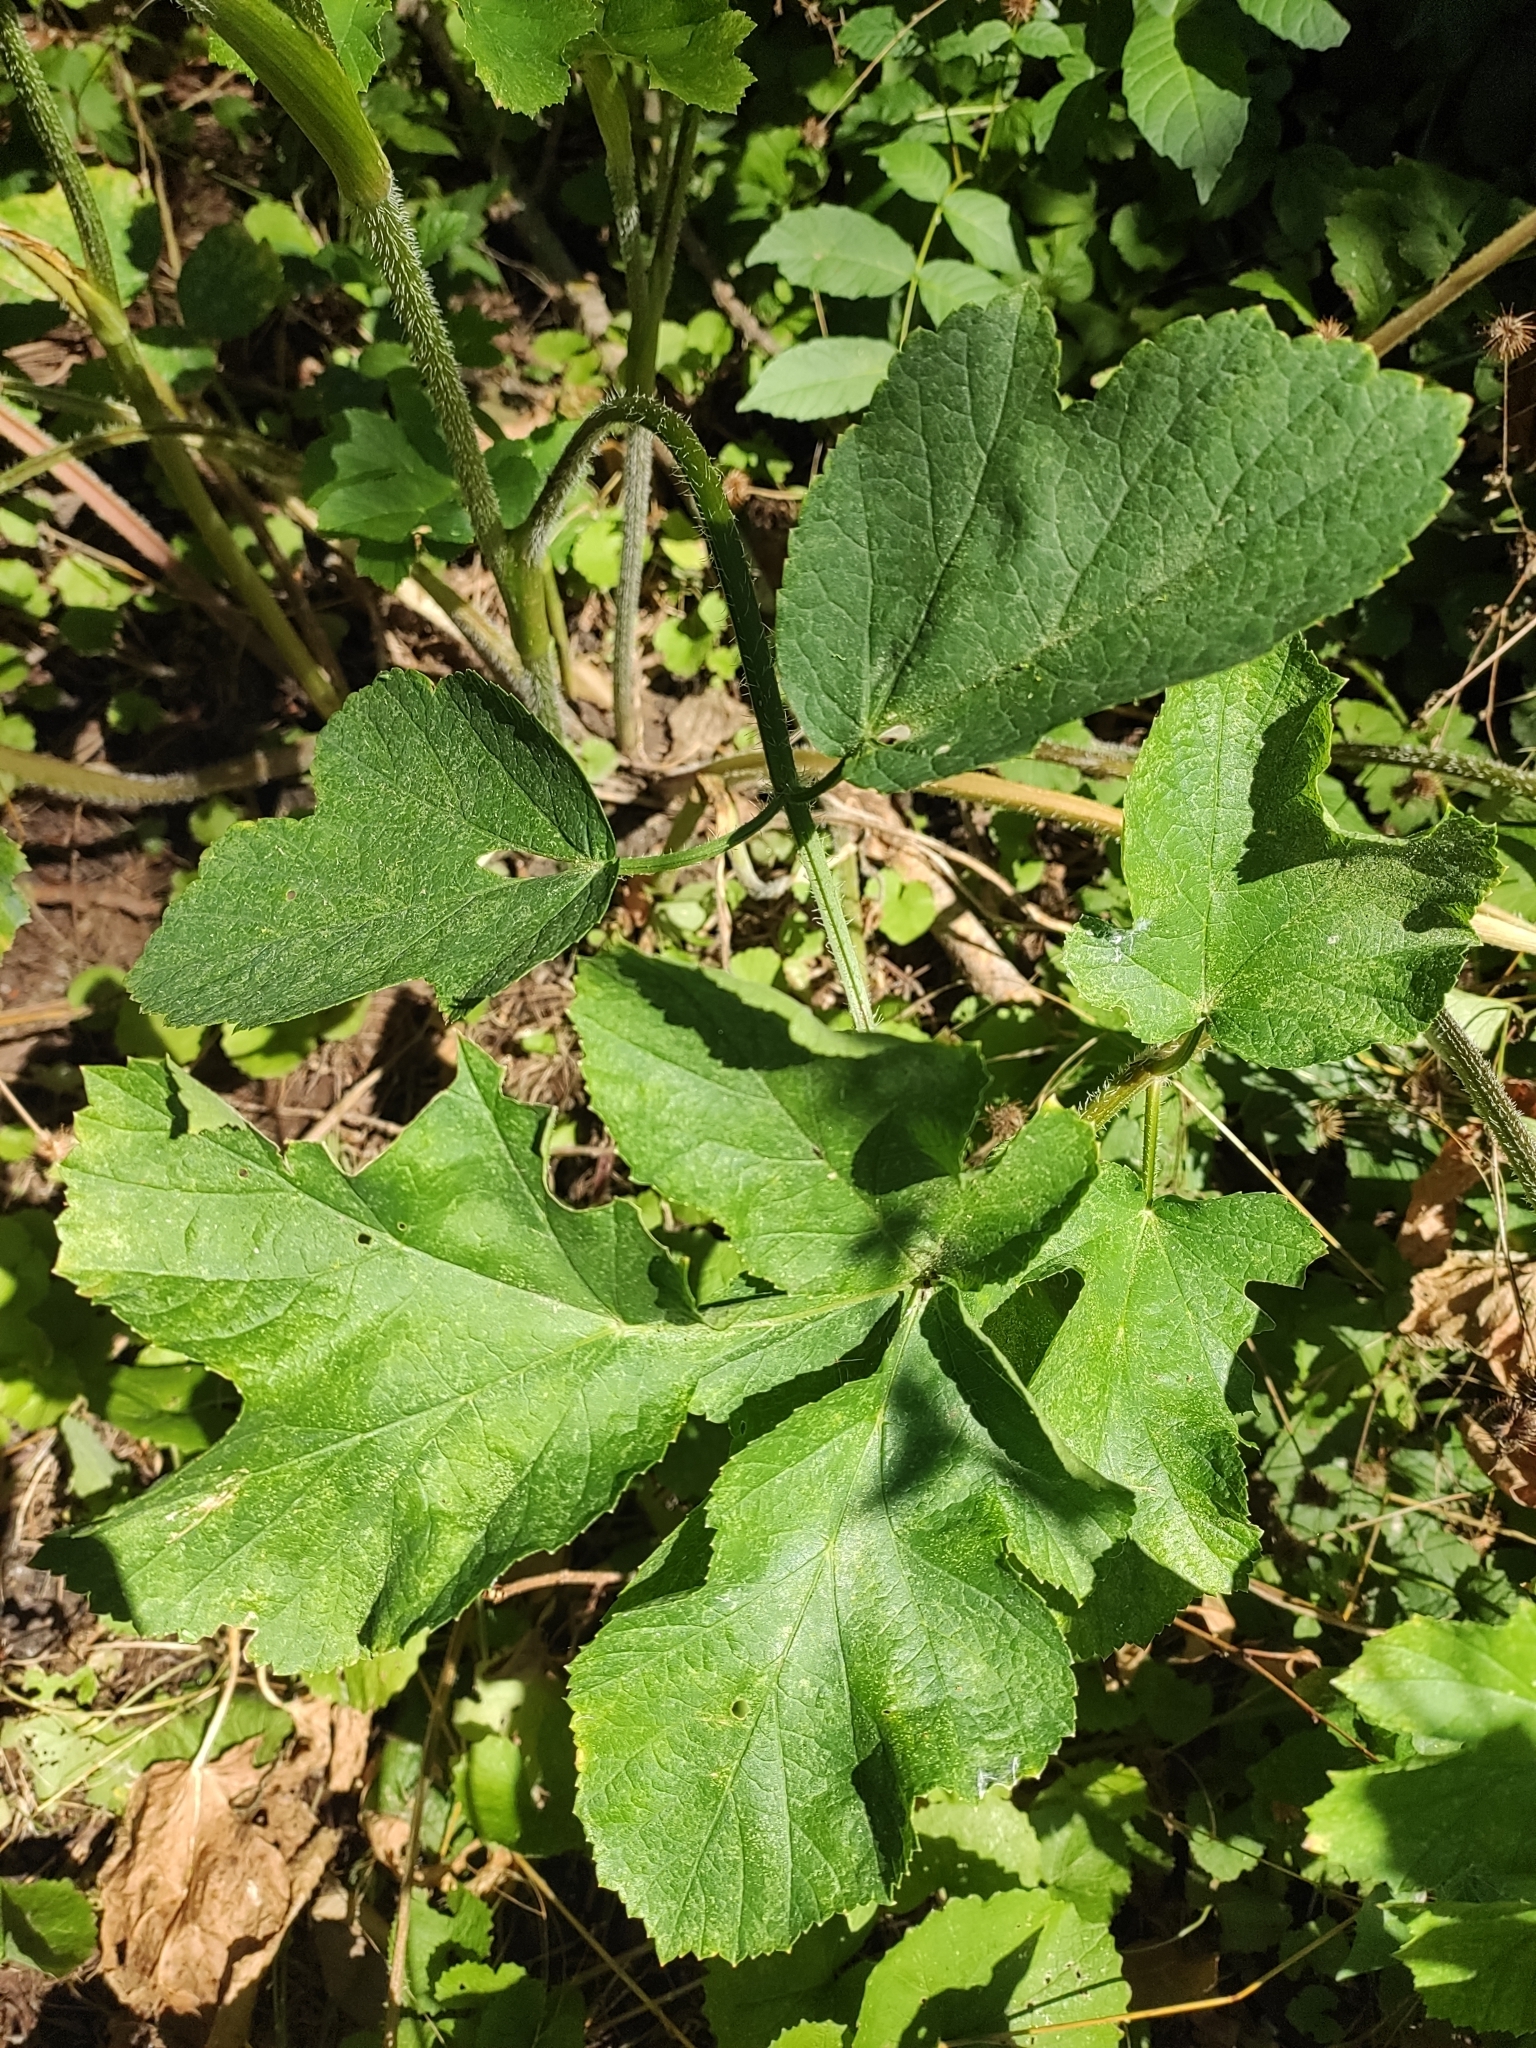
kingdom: Plantae
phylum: Tracheophyta
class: Magnoliopsida
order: Apiales
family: Apiaceae
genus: Heracleum
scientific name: Heracleum sphondylium
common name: Hogweed
